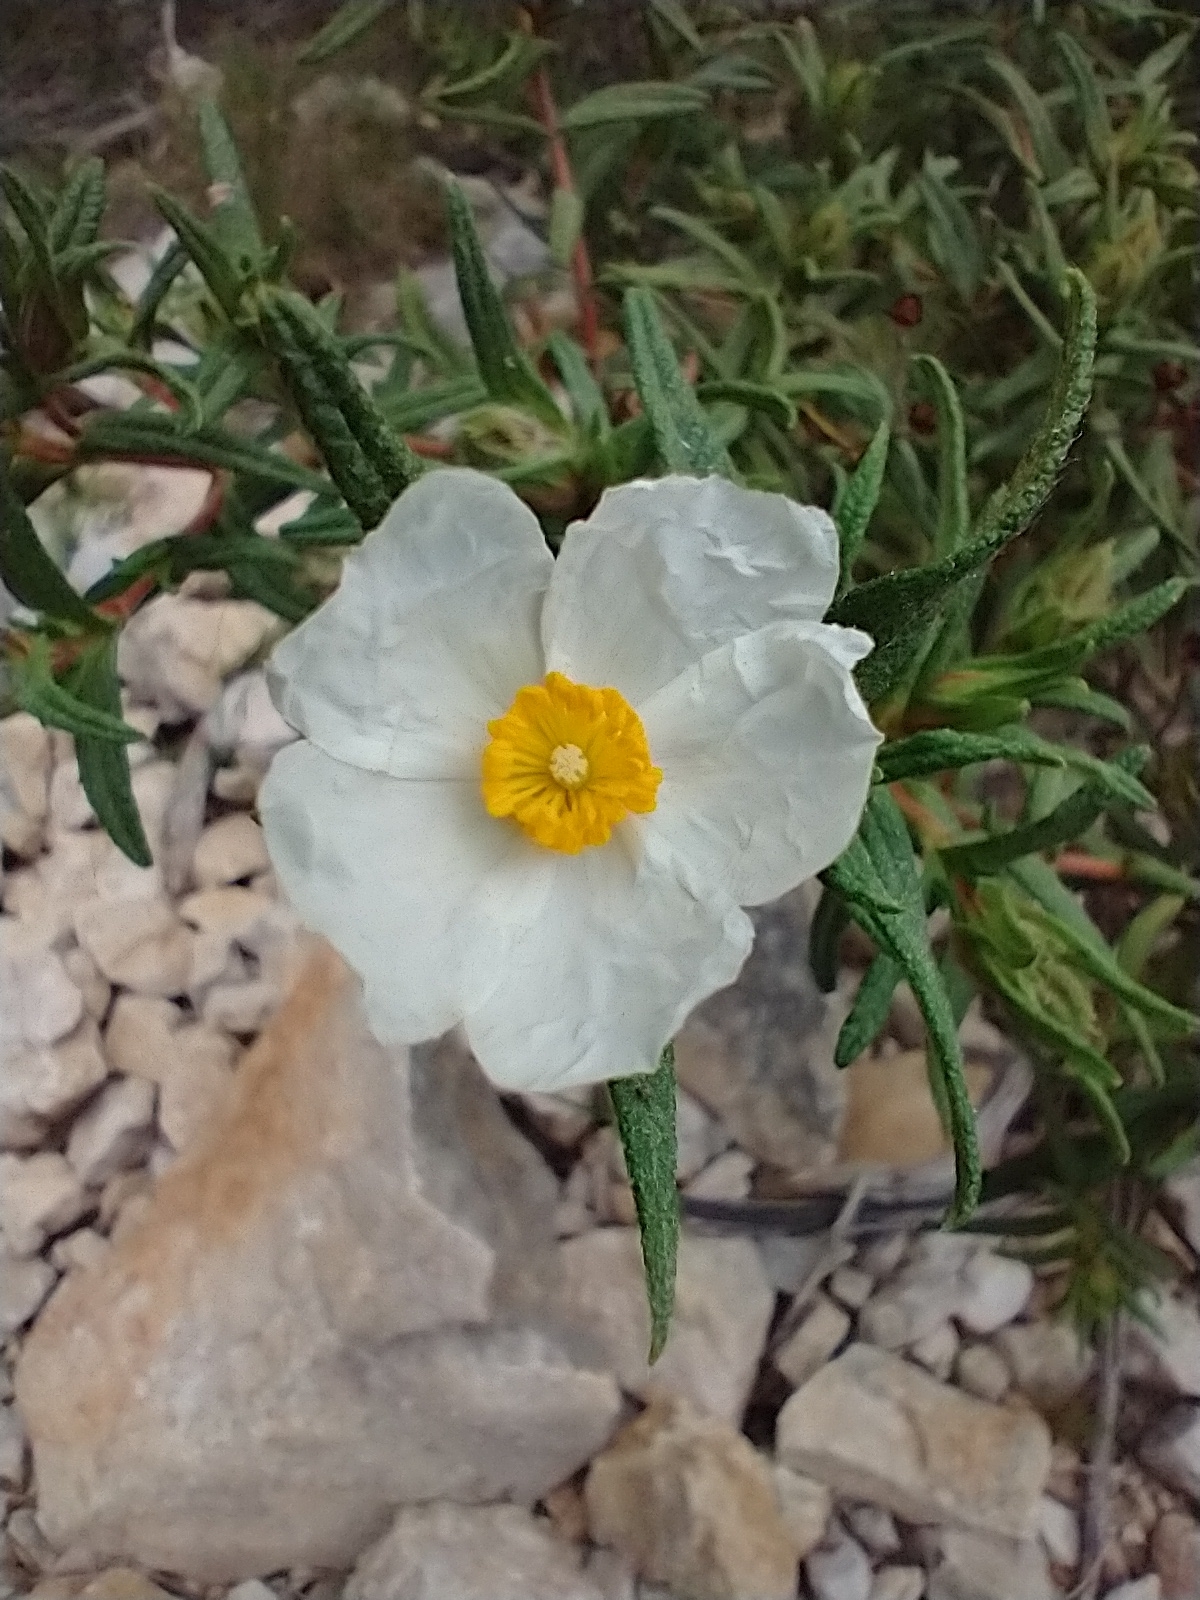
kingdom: Plantae
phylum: Tracheophyta
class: Magnoliopsida
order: Malvales
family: Cistaceae
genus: Cistus
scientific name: Cistus monspeliensis
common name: Montpelier cistus
